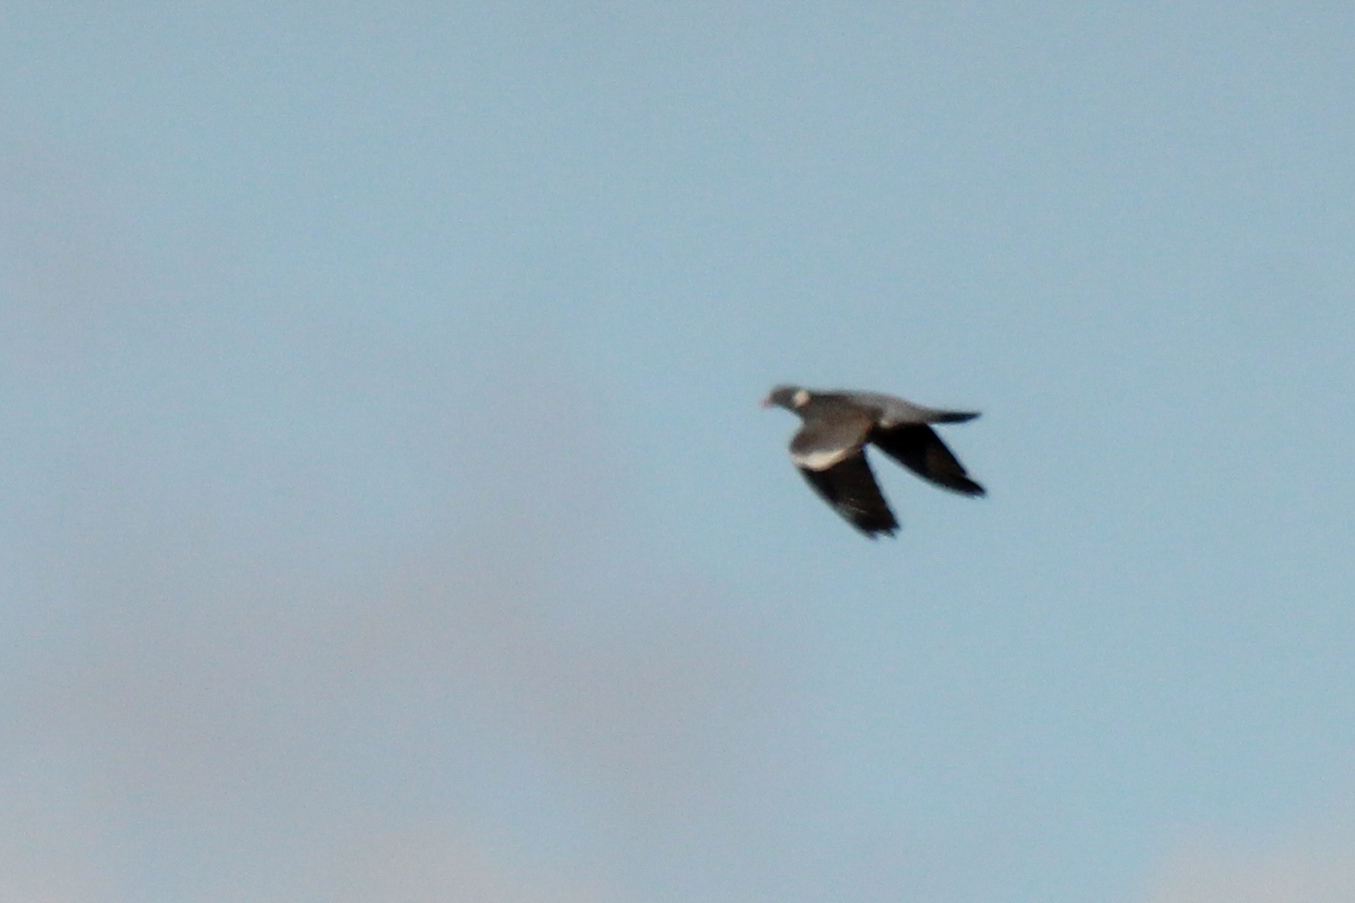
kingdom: Animalia
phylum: Chordata
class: Aves
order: Columbiformes
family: Columbidae
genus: Columba
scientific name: Columba palumbus
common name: Common wood pigeon
